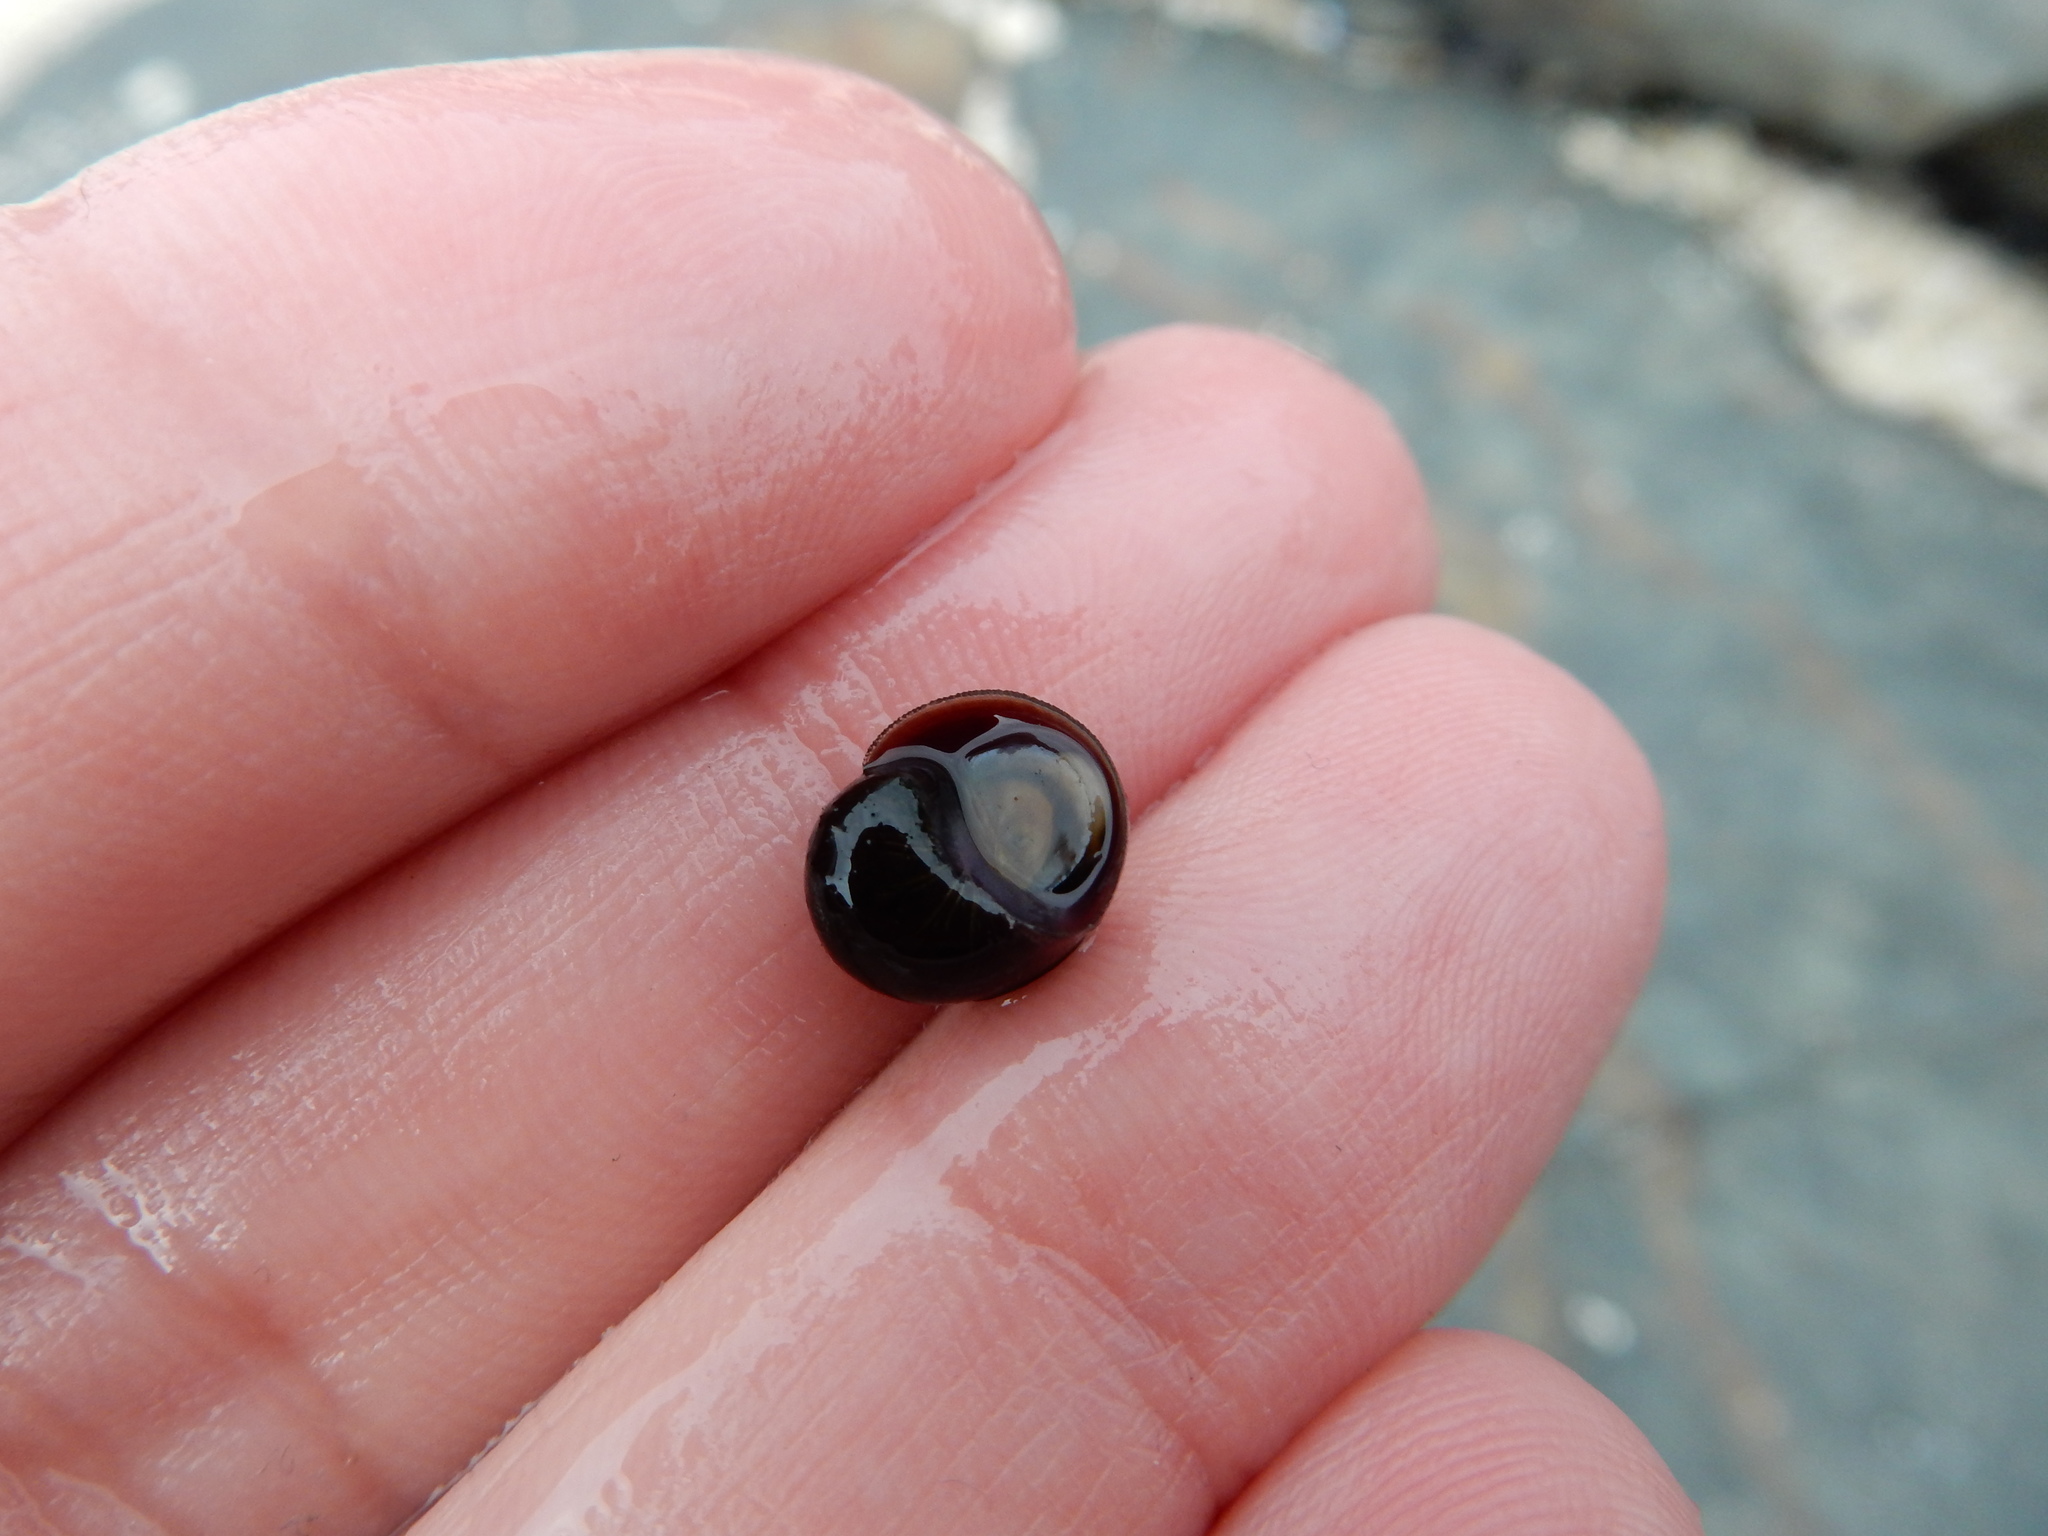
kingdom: Animalia
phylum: Mollusca
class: Gastropoda
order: Littorinimorpha
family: Littorinidae
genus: Littorina
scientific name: Littorina obtusata
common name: Flat periwinkle
